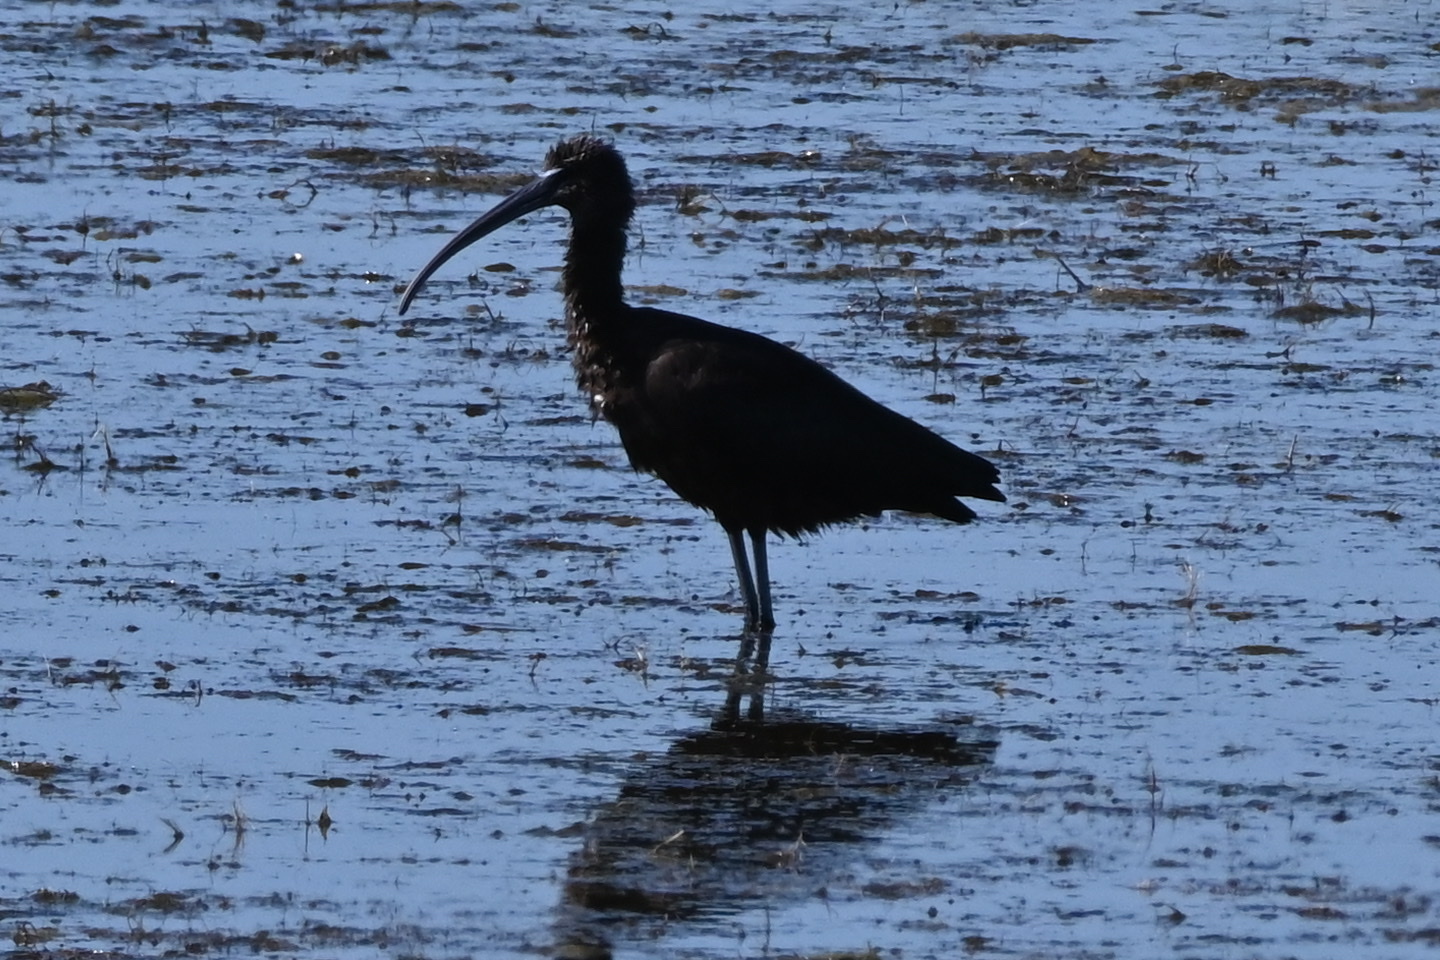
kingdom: Animalia
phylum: Chordata
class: Aves
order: Pelecaniformes
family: Threskiornithidae
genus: Plegadis
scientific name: Plegadis falcinellus
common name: Glossy ibis
